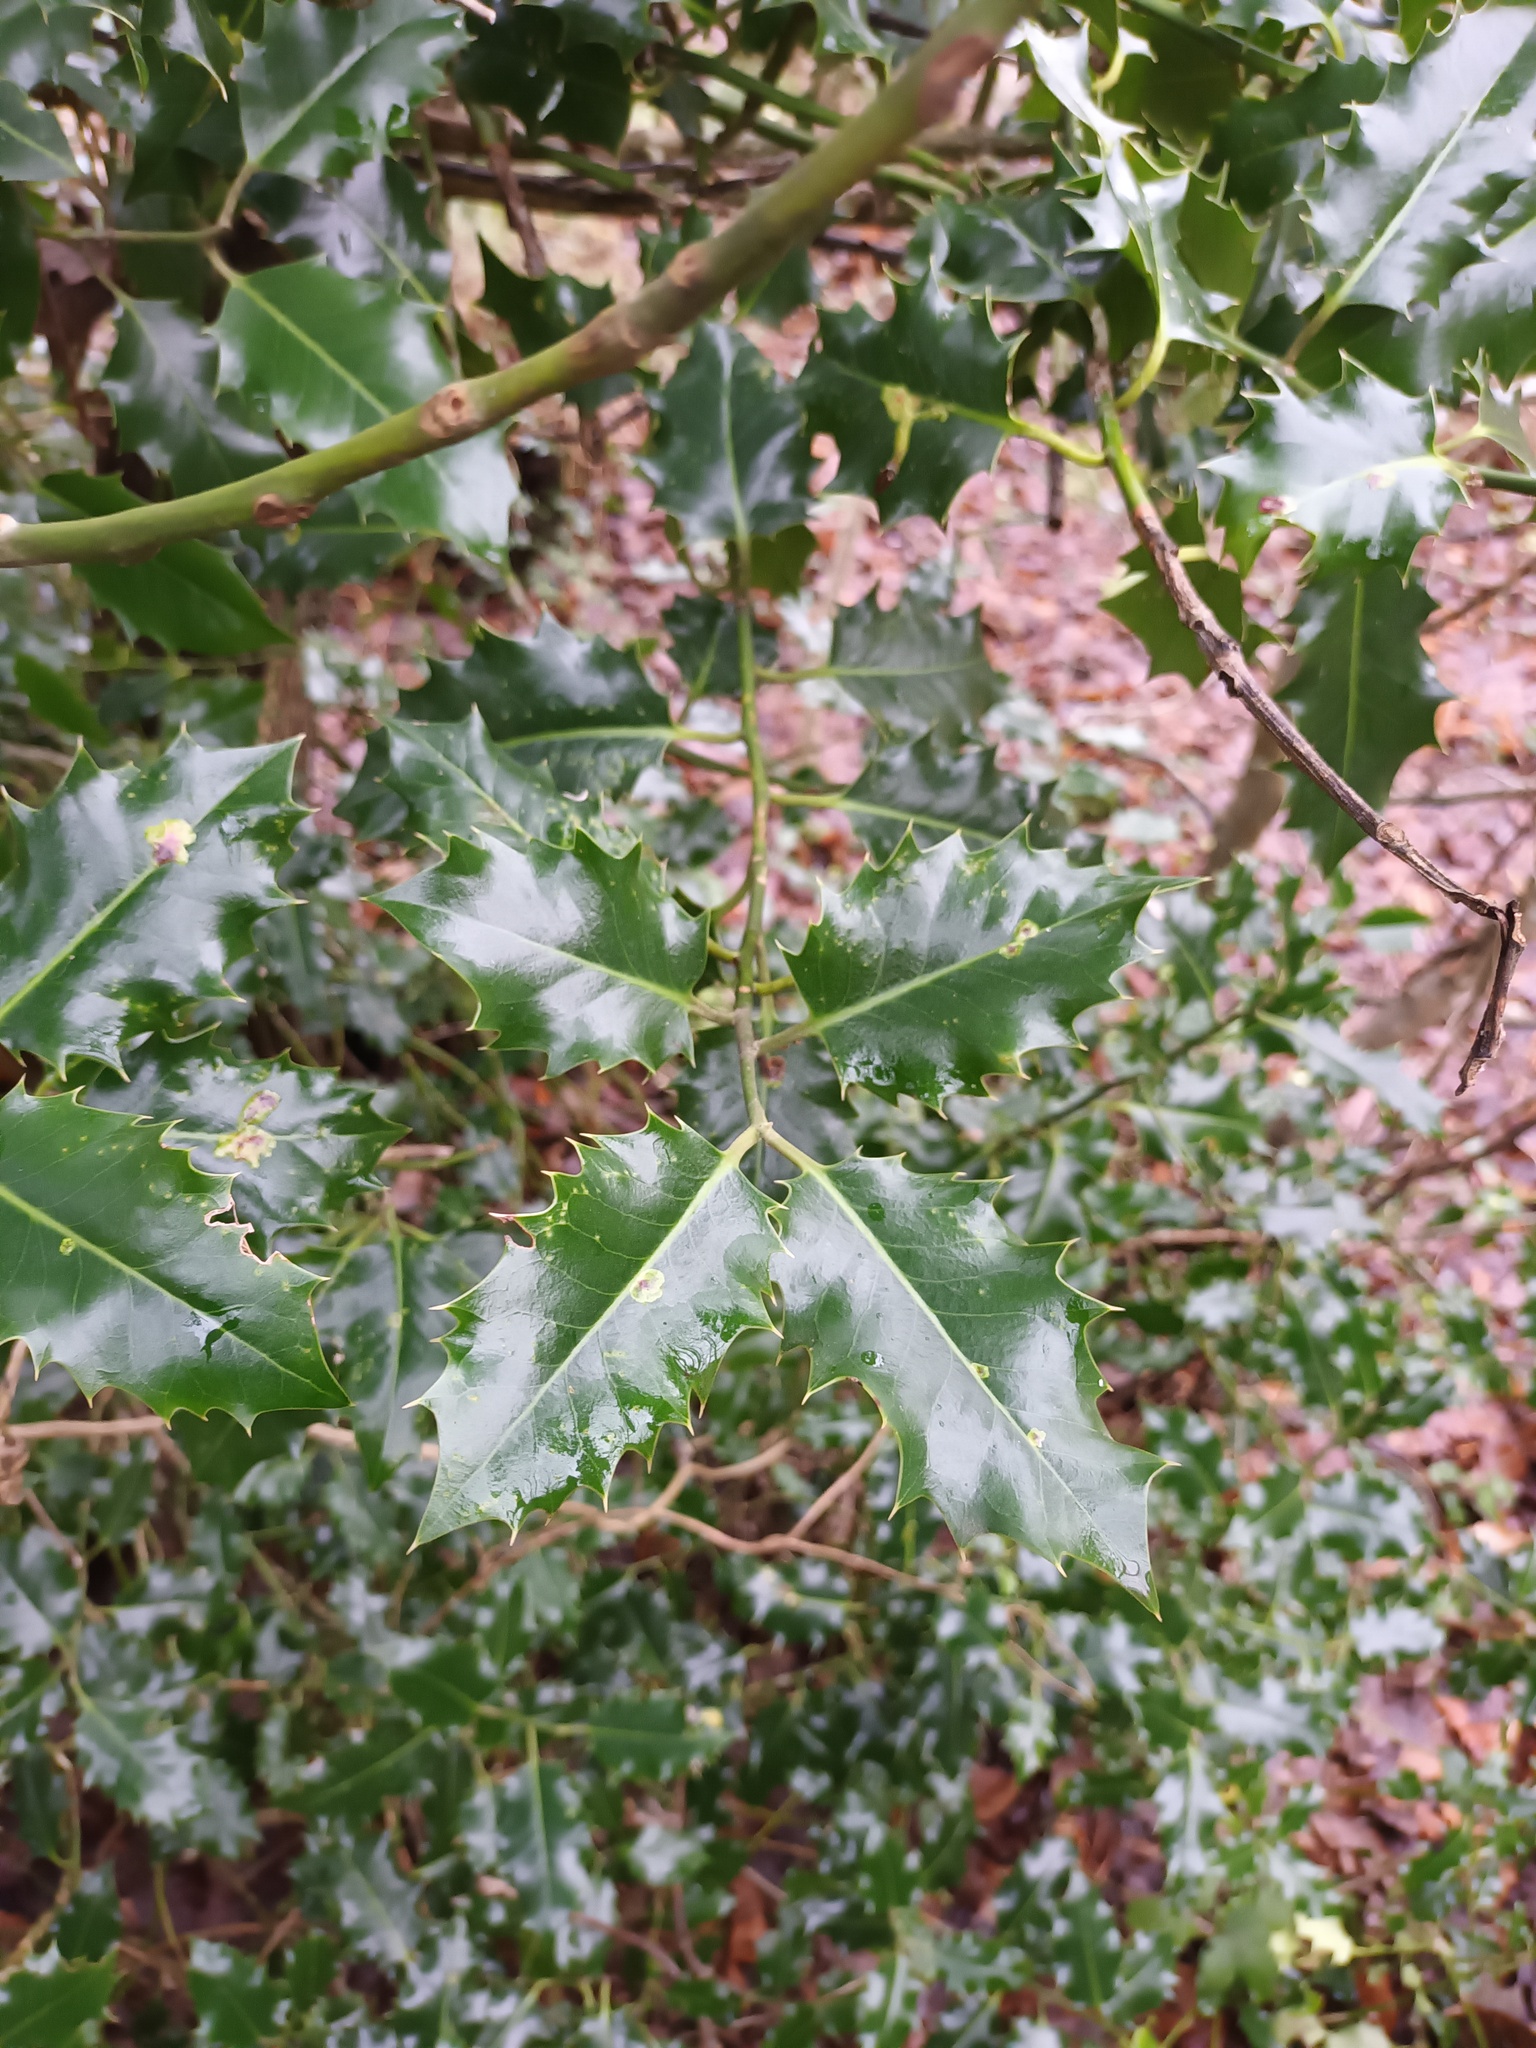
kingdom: Plantae
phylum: Tracheophyta
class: Magnoliopsida
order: Aquifoliales
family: Aquifoliaceae
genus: Ilex
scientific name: Ilex aquifolium
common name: English holly
